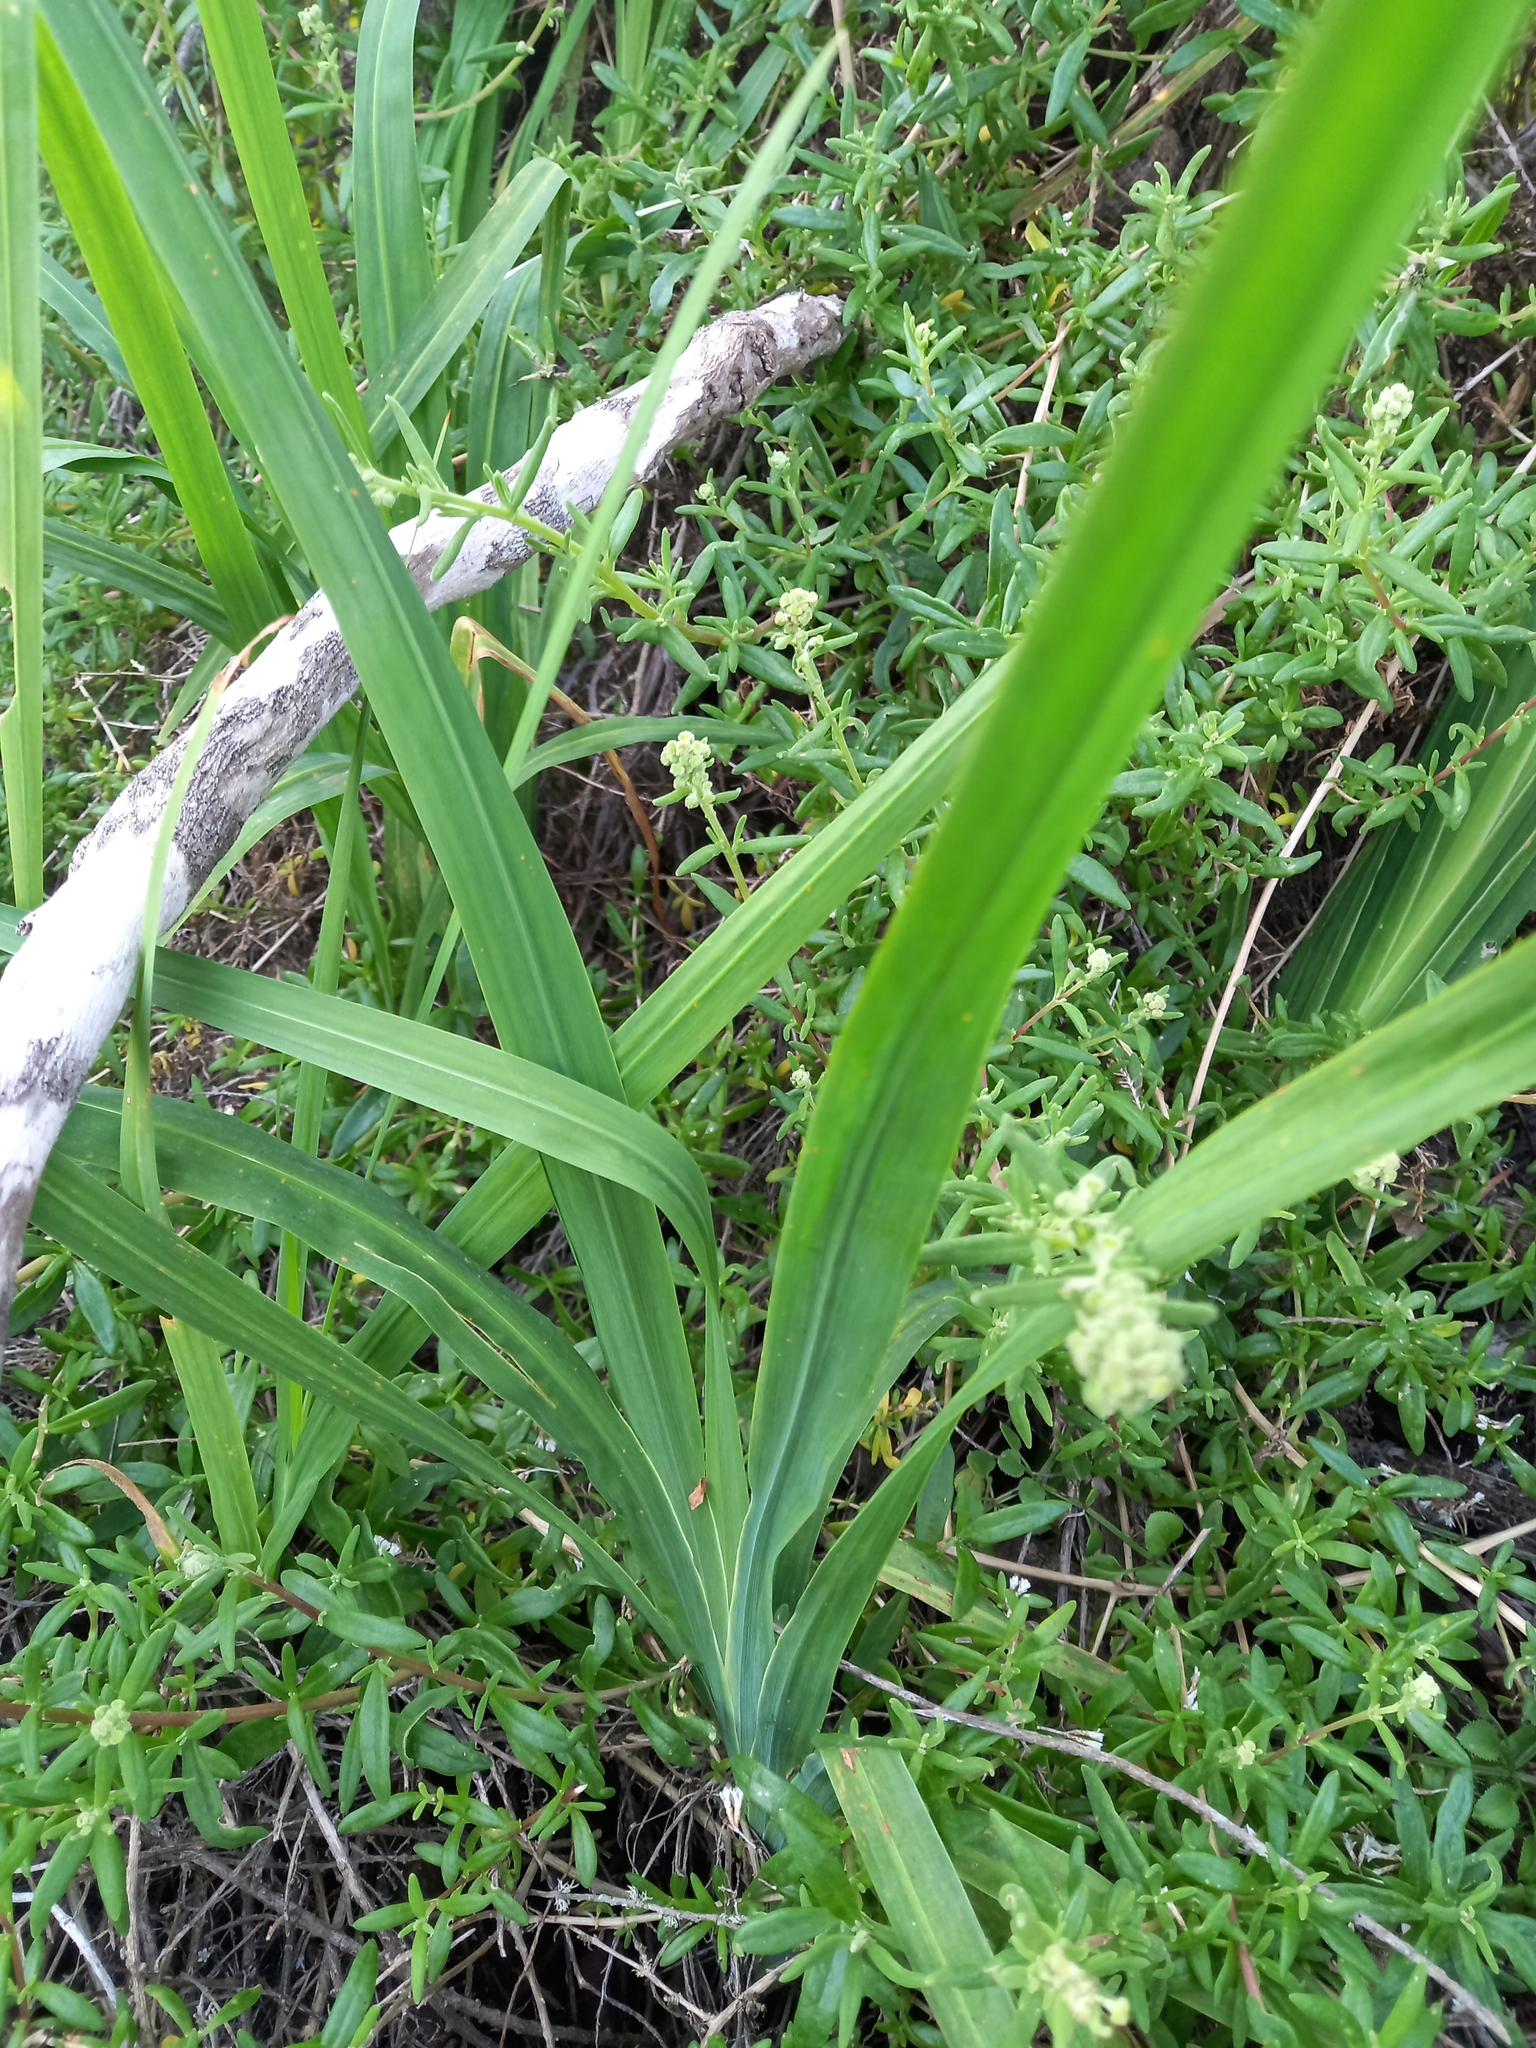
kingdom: Plantae
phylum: Tracheophyta
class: Liliopsida
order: Asparagales
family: Iridaceae
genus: Chasmanthe
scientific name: Chasmanthe aethiopica
